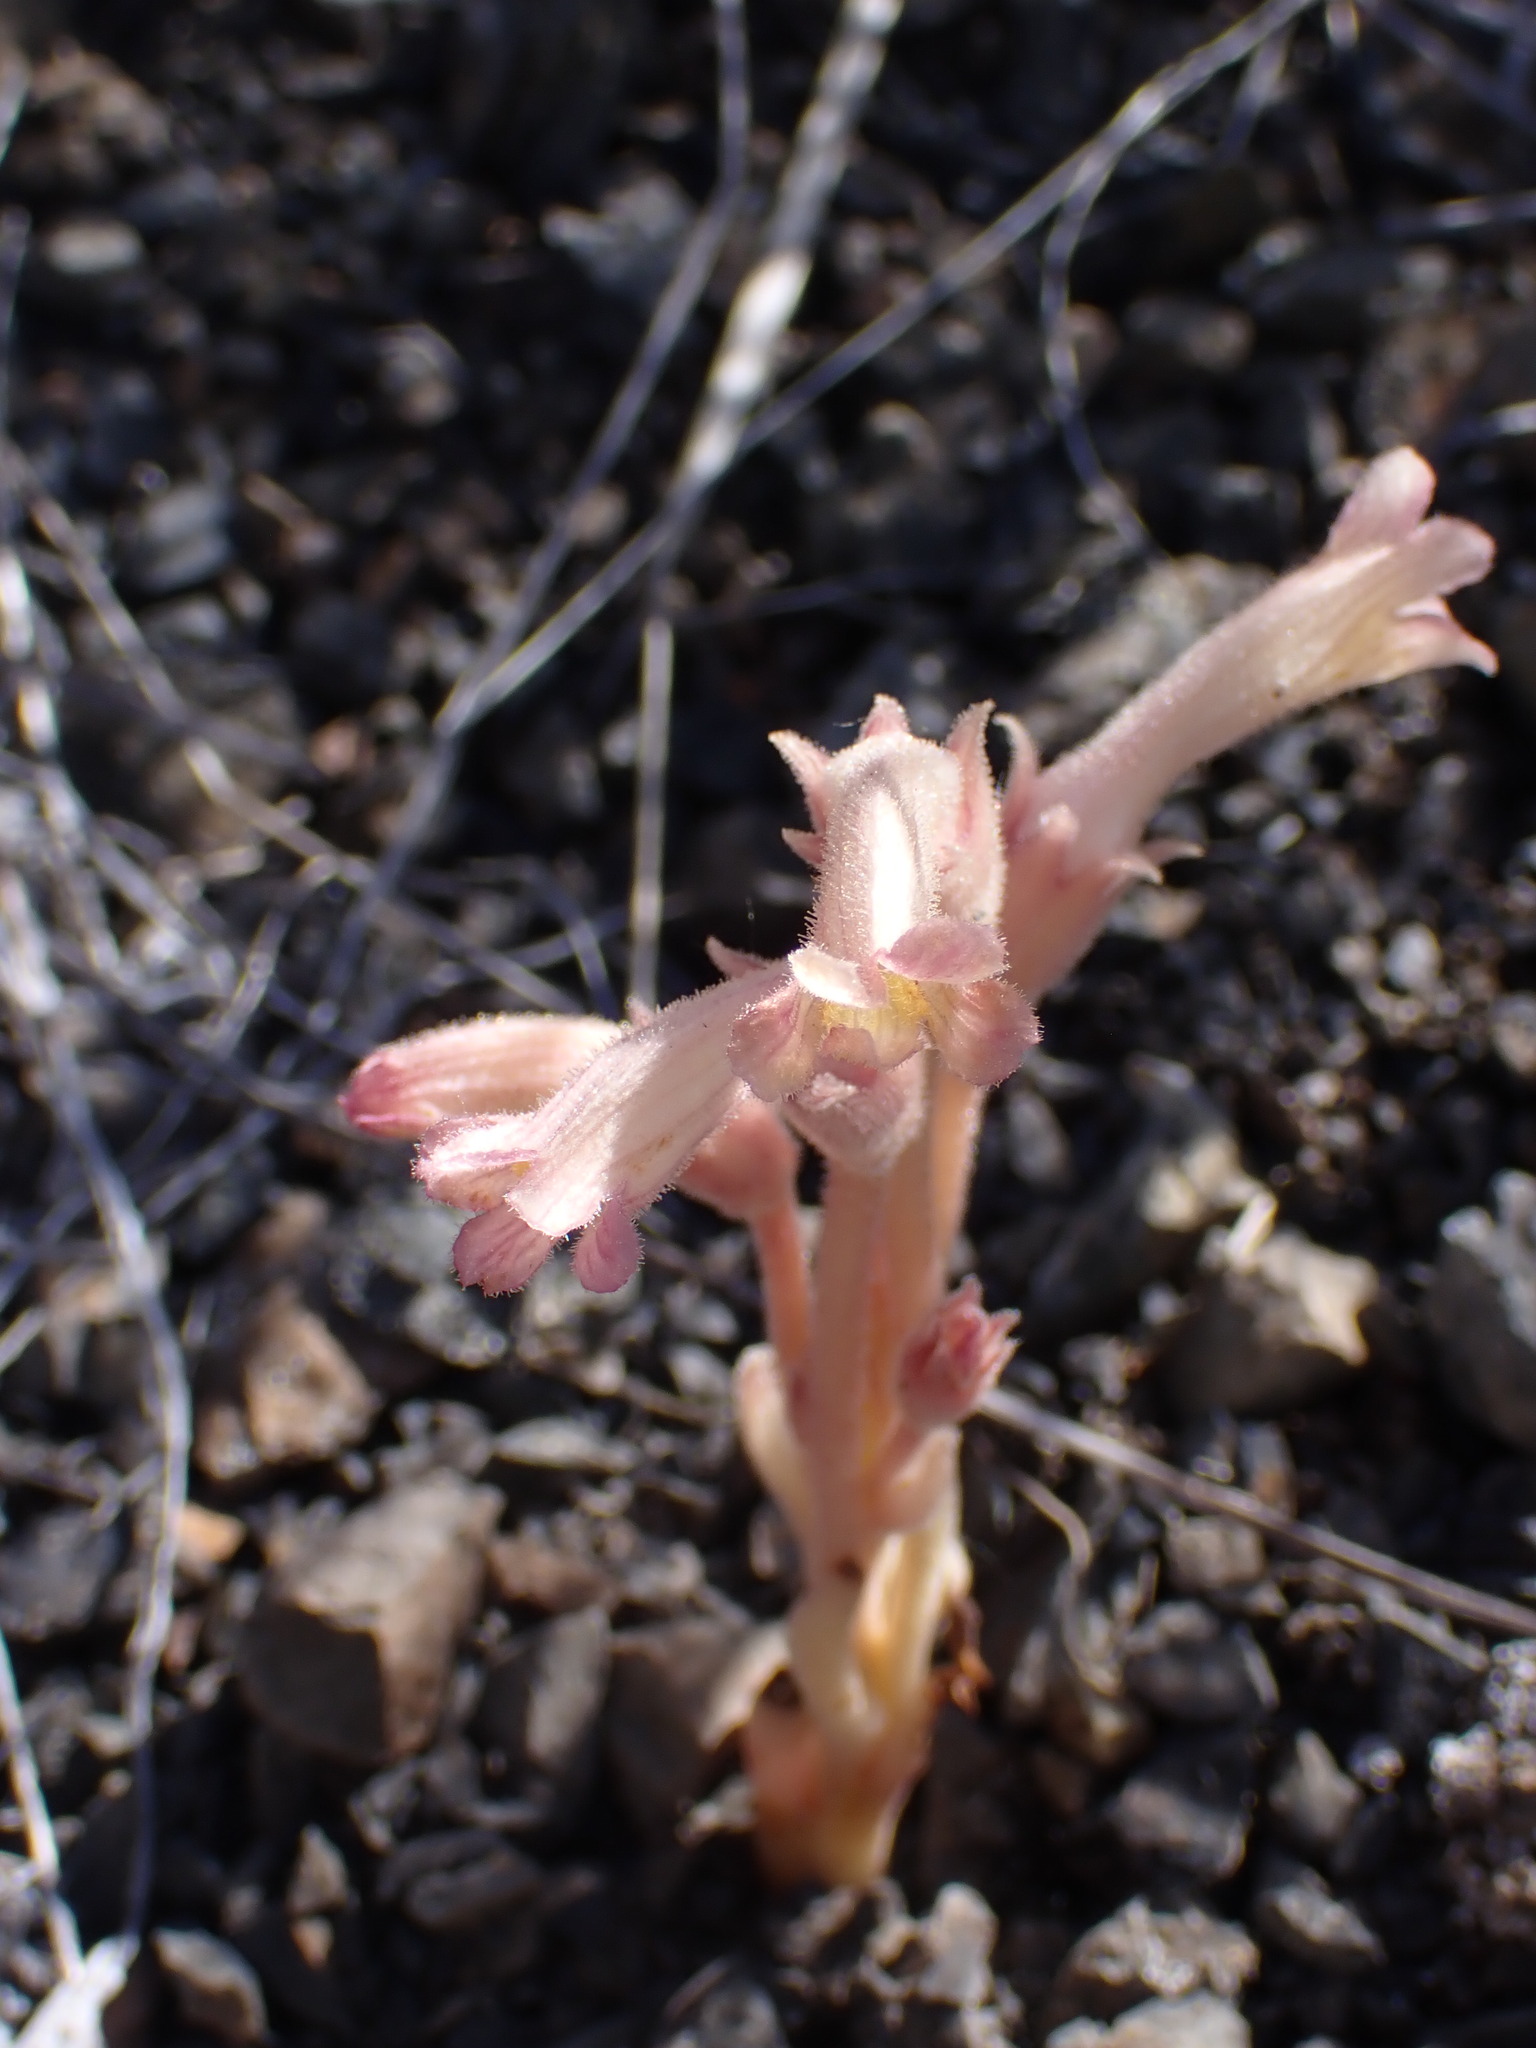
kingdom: Plantae
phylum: Tracheophyta
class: Magnoliopsida
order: Lamiales
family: Orobanchaceae
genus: Aphyllon
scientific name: Aphyllon fasciculatum
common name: Clustered broomrape
